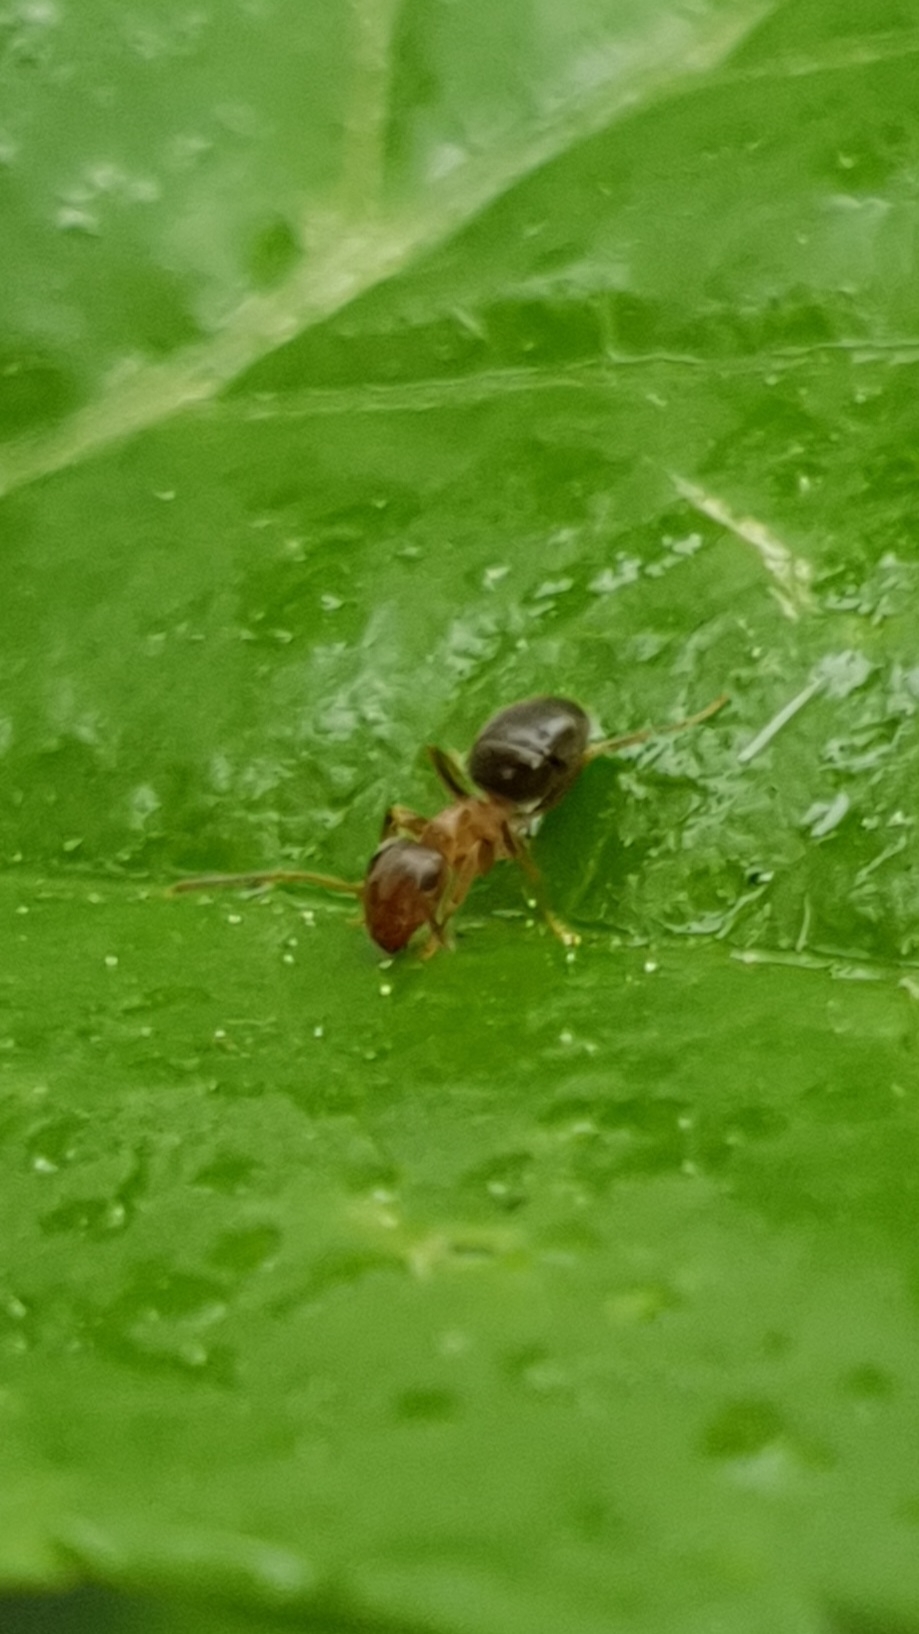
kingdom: Animalia
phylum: Arthropoda
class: Insecta
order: Hymenoptera
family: Formicidae
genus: Lasius
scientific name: Lasius brunneus
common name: Brown ant
